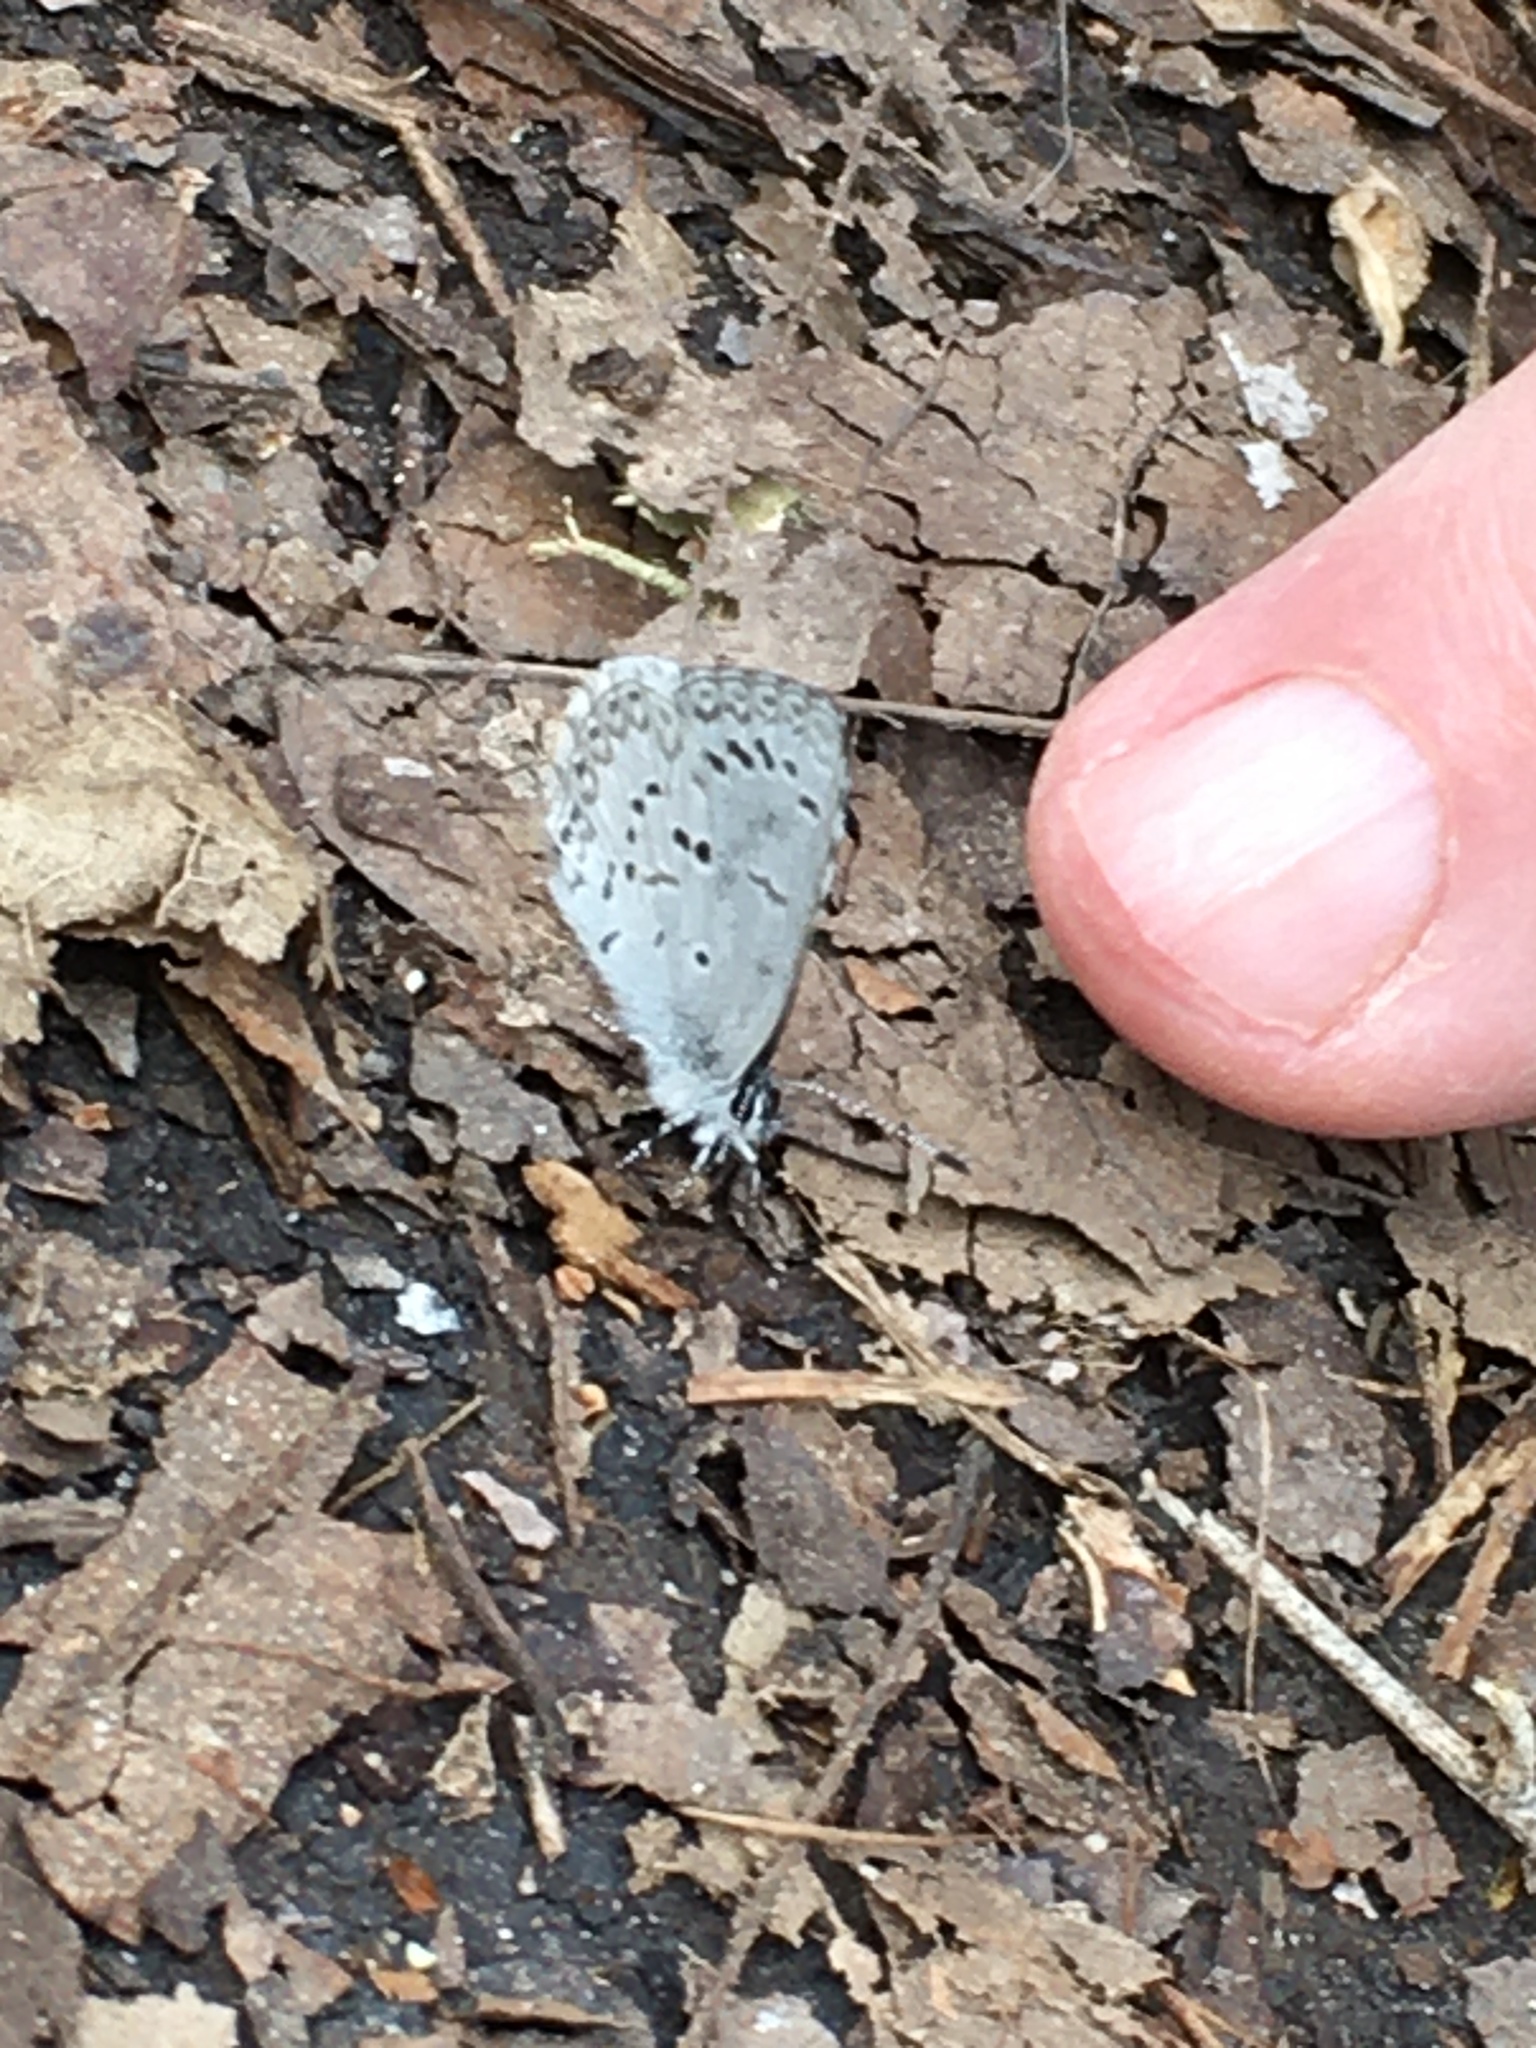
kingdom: Animalia
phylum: Arthropoda
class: Insecta
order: Lepidoptera
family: Lycaenidae
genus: Celastrina
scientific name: Celastrina ladon
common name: Spring azure
